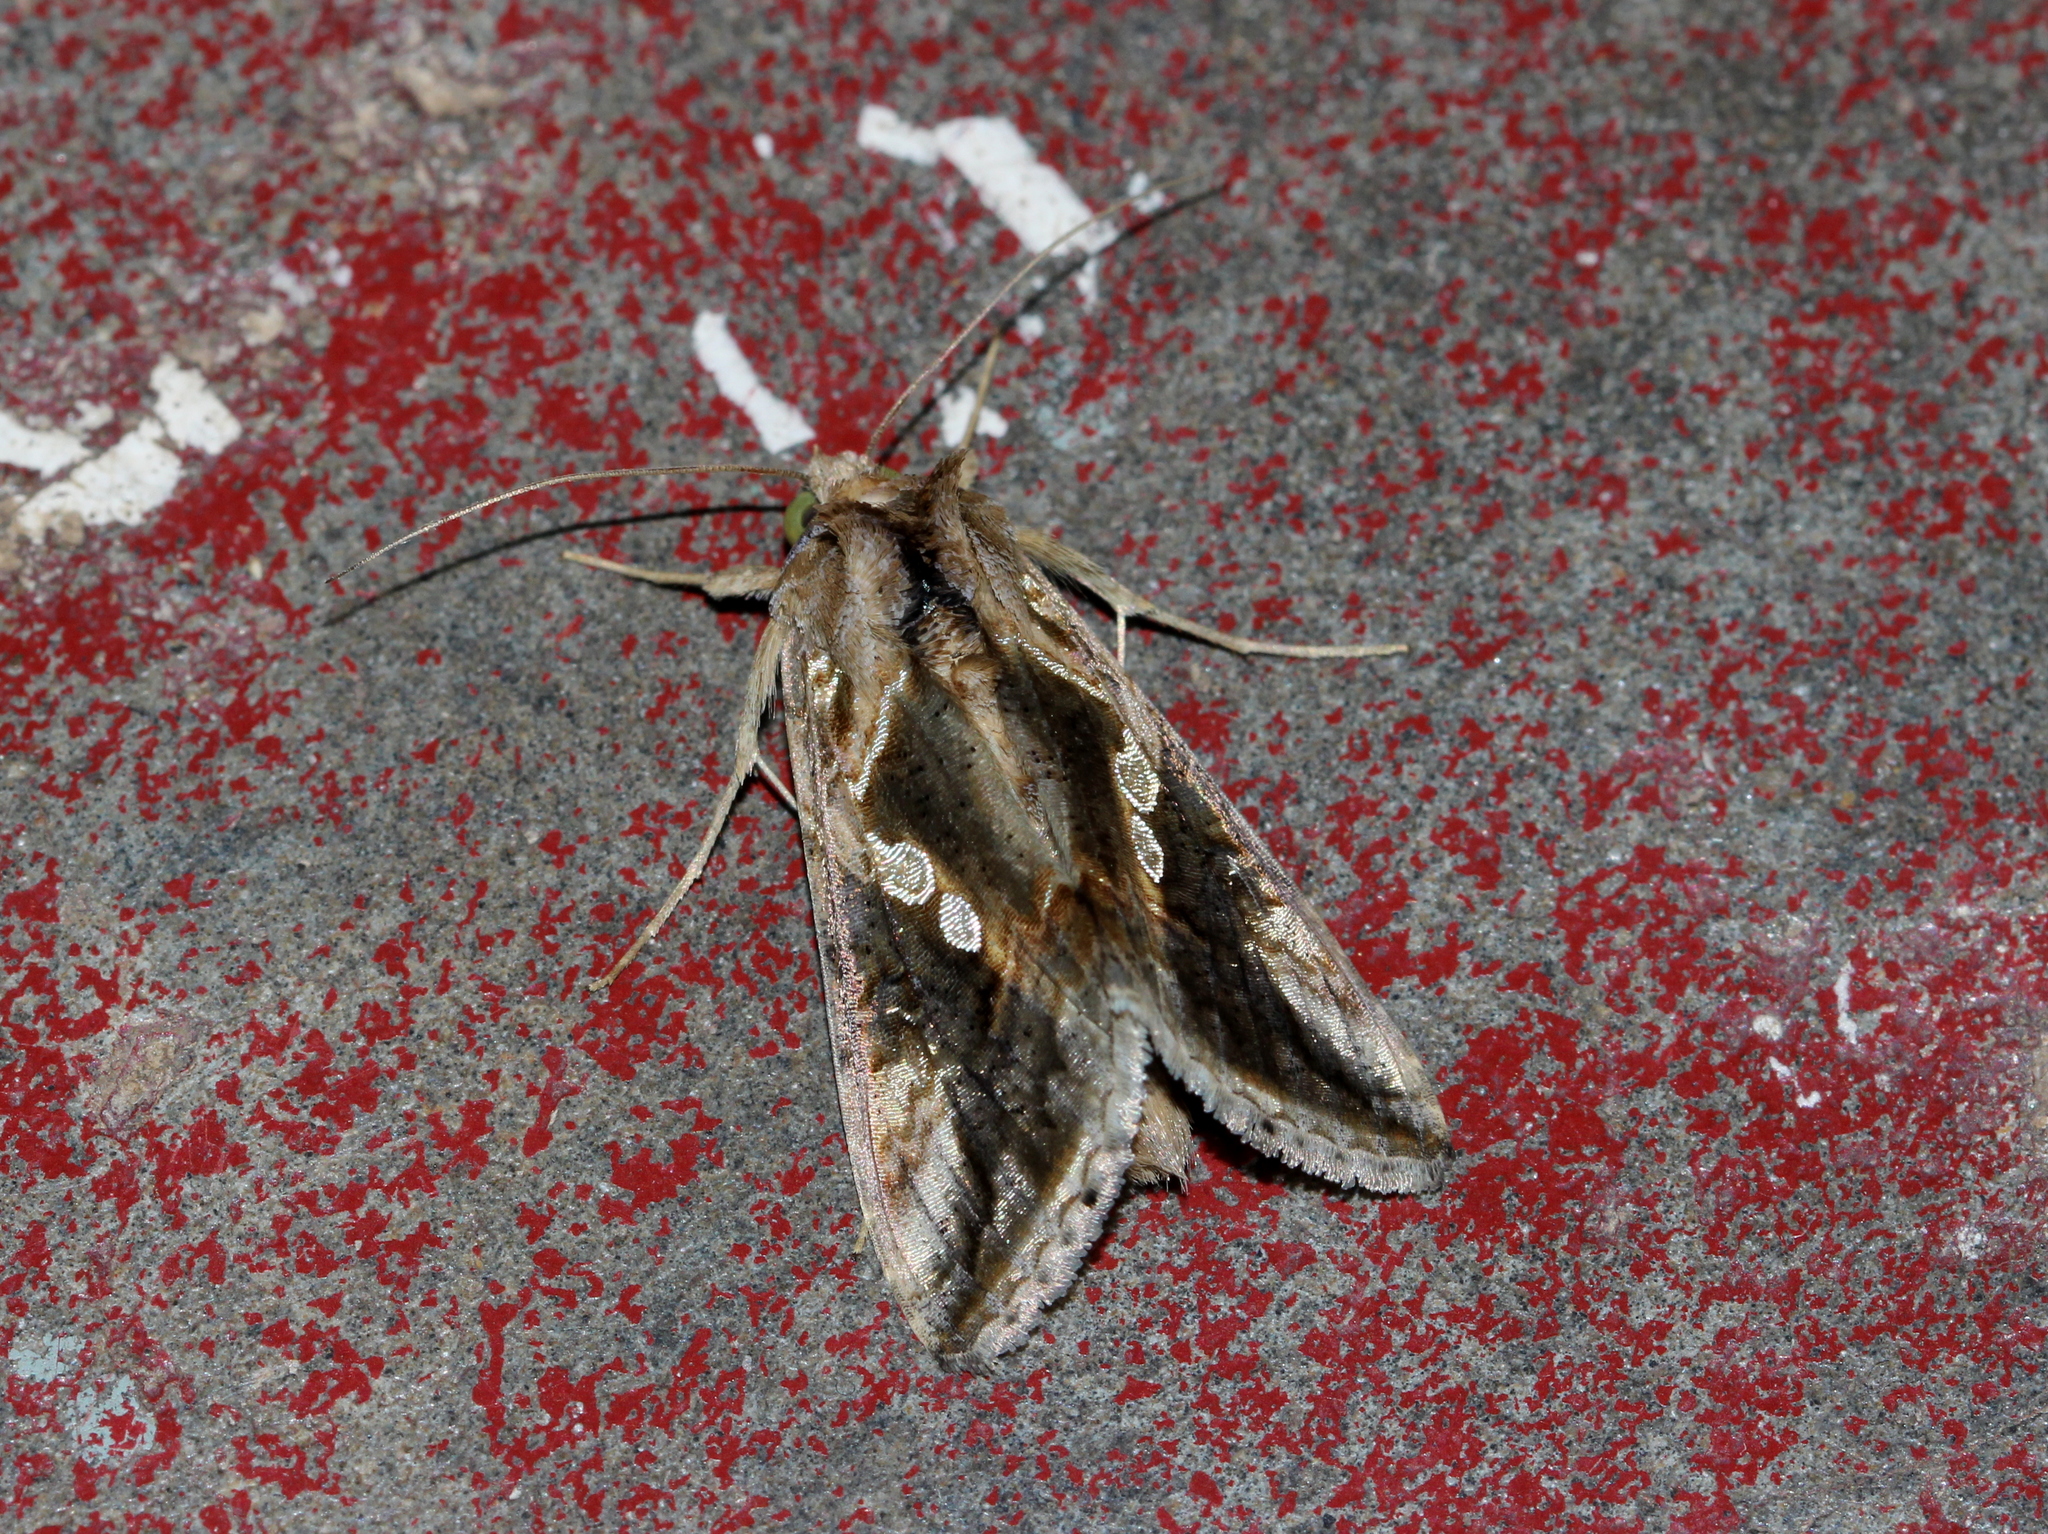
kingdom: Animalia
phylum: Arthropoda
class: Insecta
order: Lepidoptera
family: Noctuidae
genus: Chrysodeixis
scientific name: Chrysodeixis eriosoma
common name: Green garden looper
